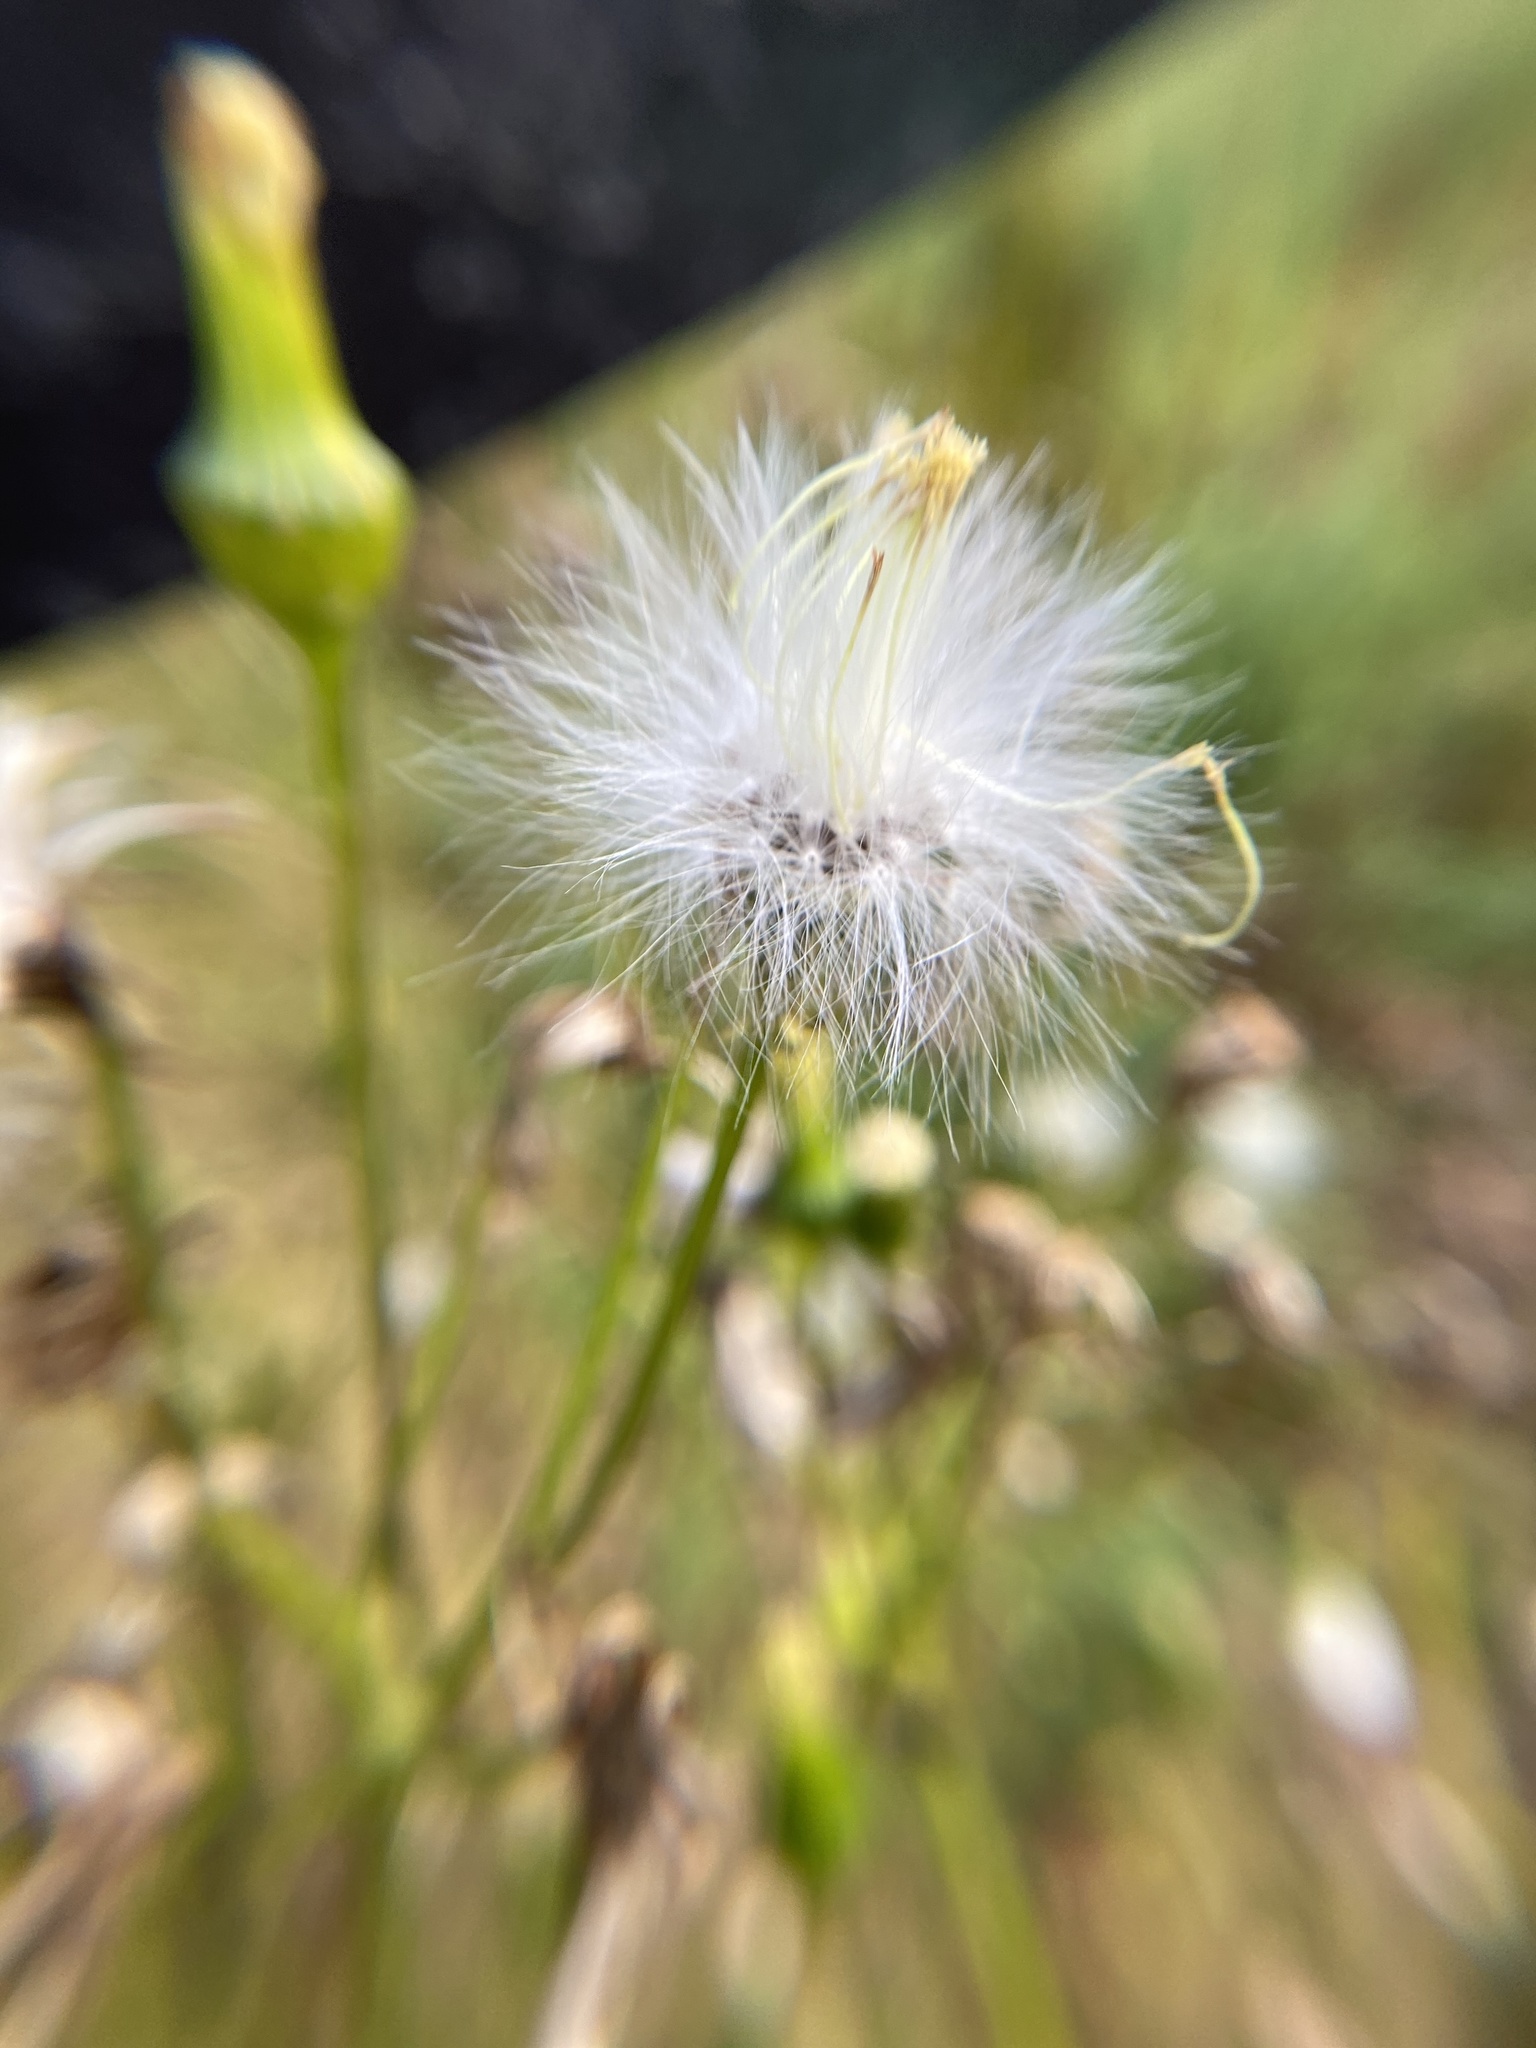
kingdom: Plantae
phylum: Tracheophyta
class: Magnoliopsida
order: Asterales
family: Asteraceae
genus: Erechtites
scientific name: Erechtites hieraciifolius
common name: American burnweed
